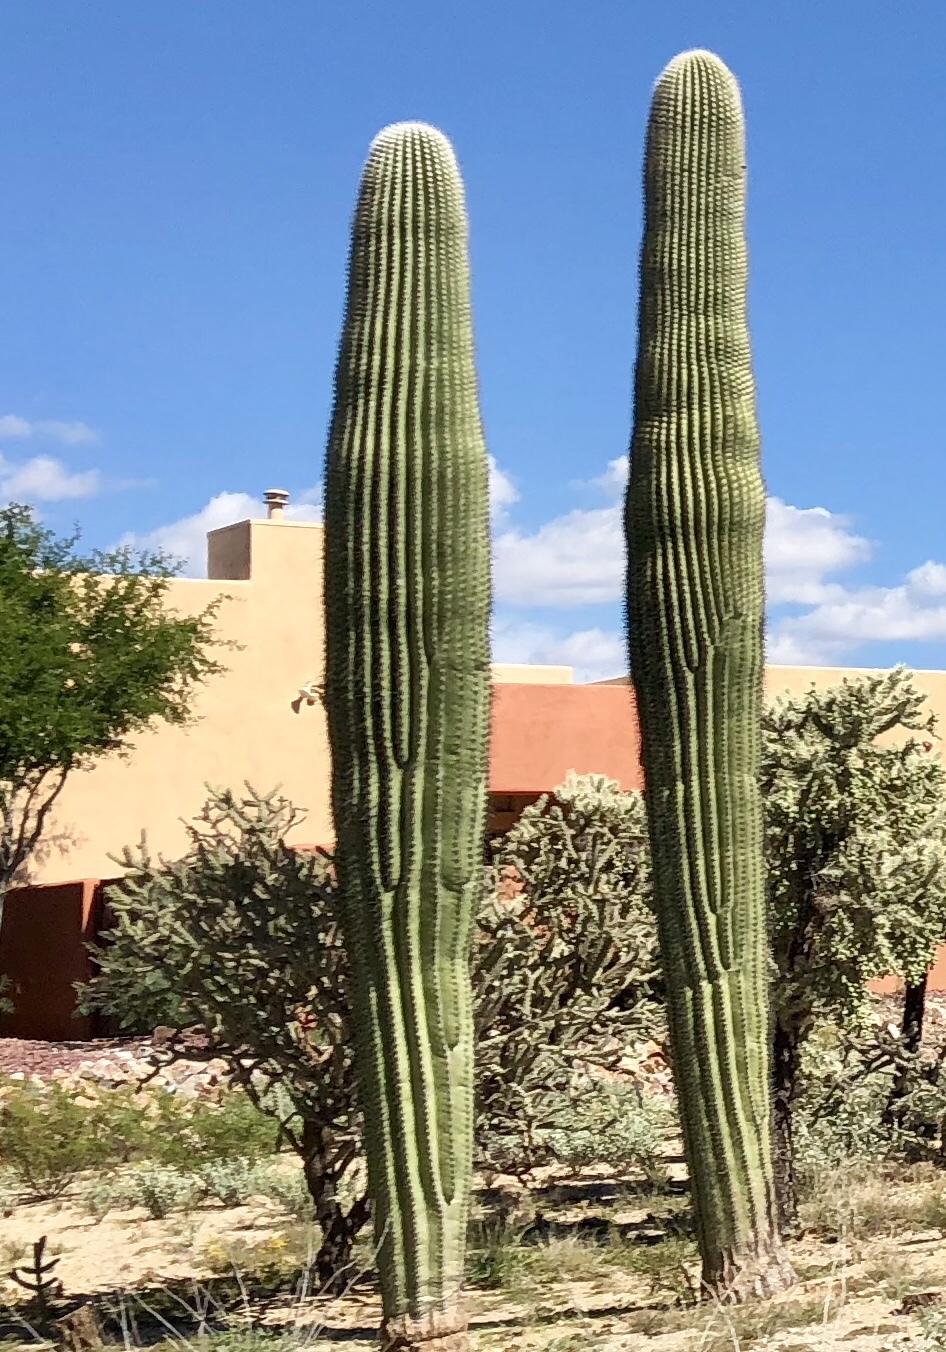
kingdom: Plantae
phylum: Tracheophyta
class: Magnoliopsida
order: Caryophyllales
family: Cactaceae
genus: Carnegiea
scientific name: Carnegiea gigantea
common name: Saguaro
